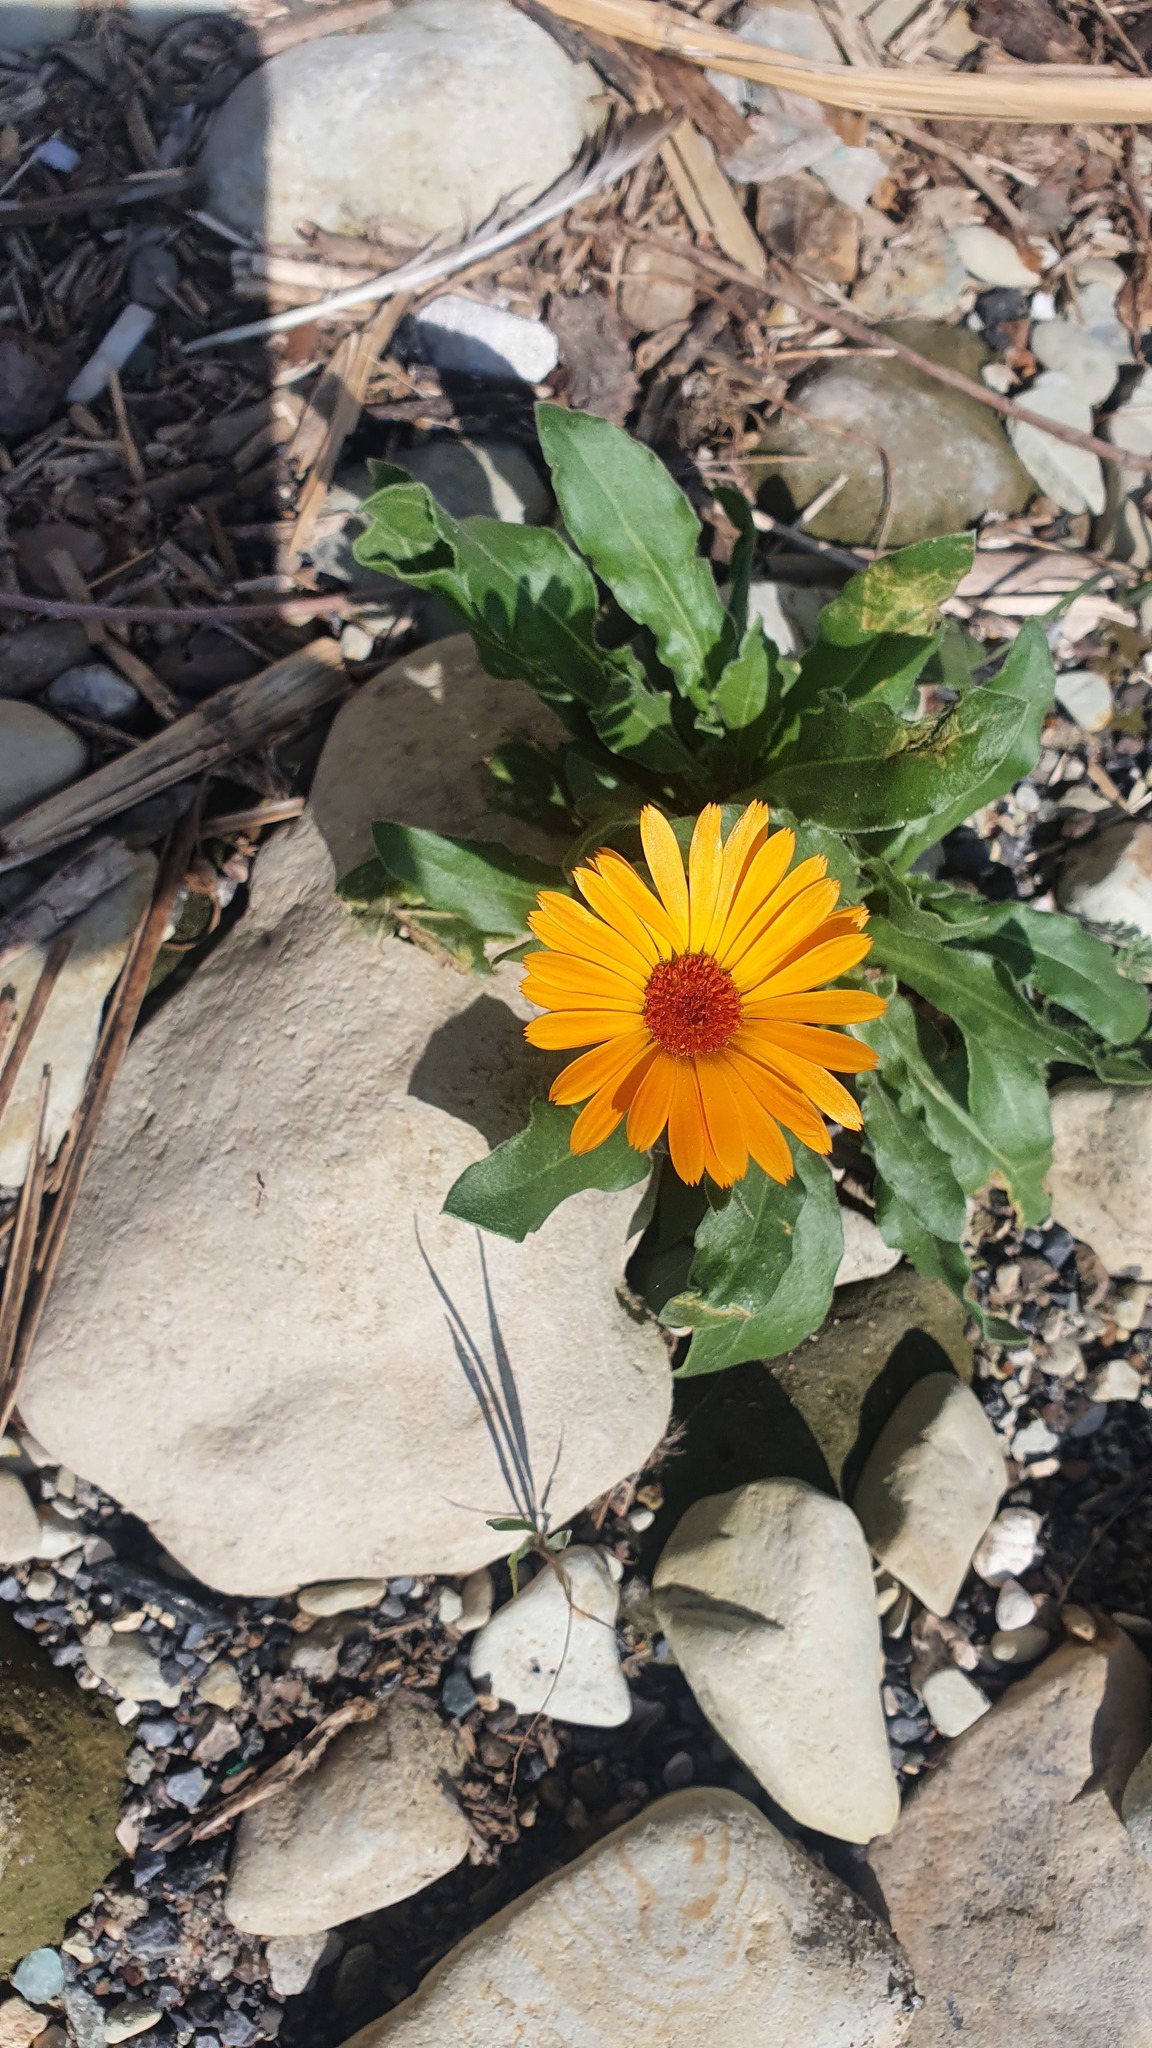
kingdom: Plantae
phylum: Tracheophyta
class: Magnoliopsida
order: Asterales
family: Asteraceae
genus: Calendula
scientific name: Calendula officinalis
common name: Pot marigold
